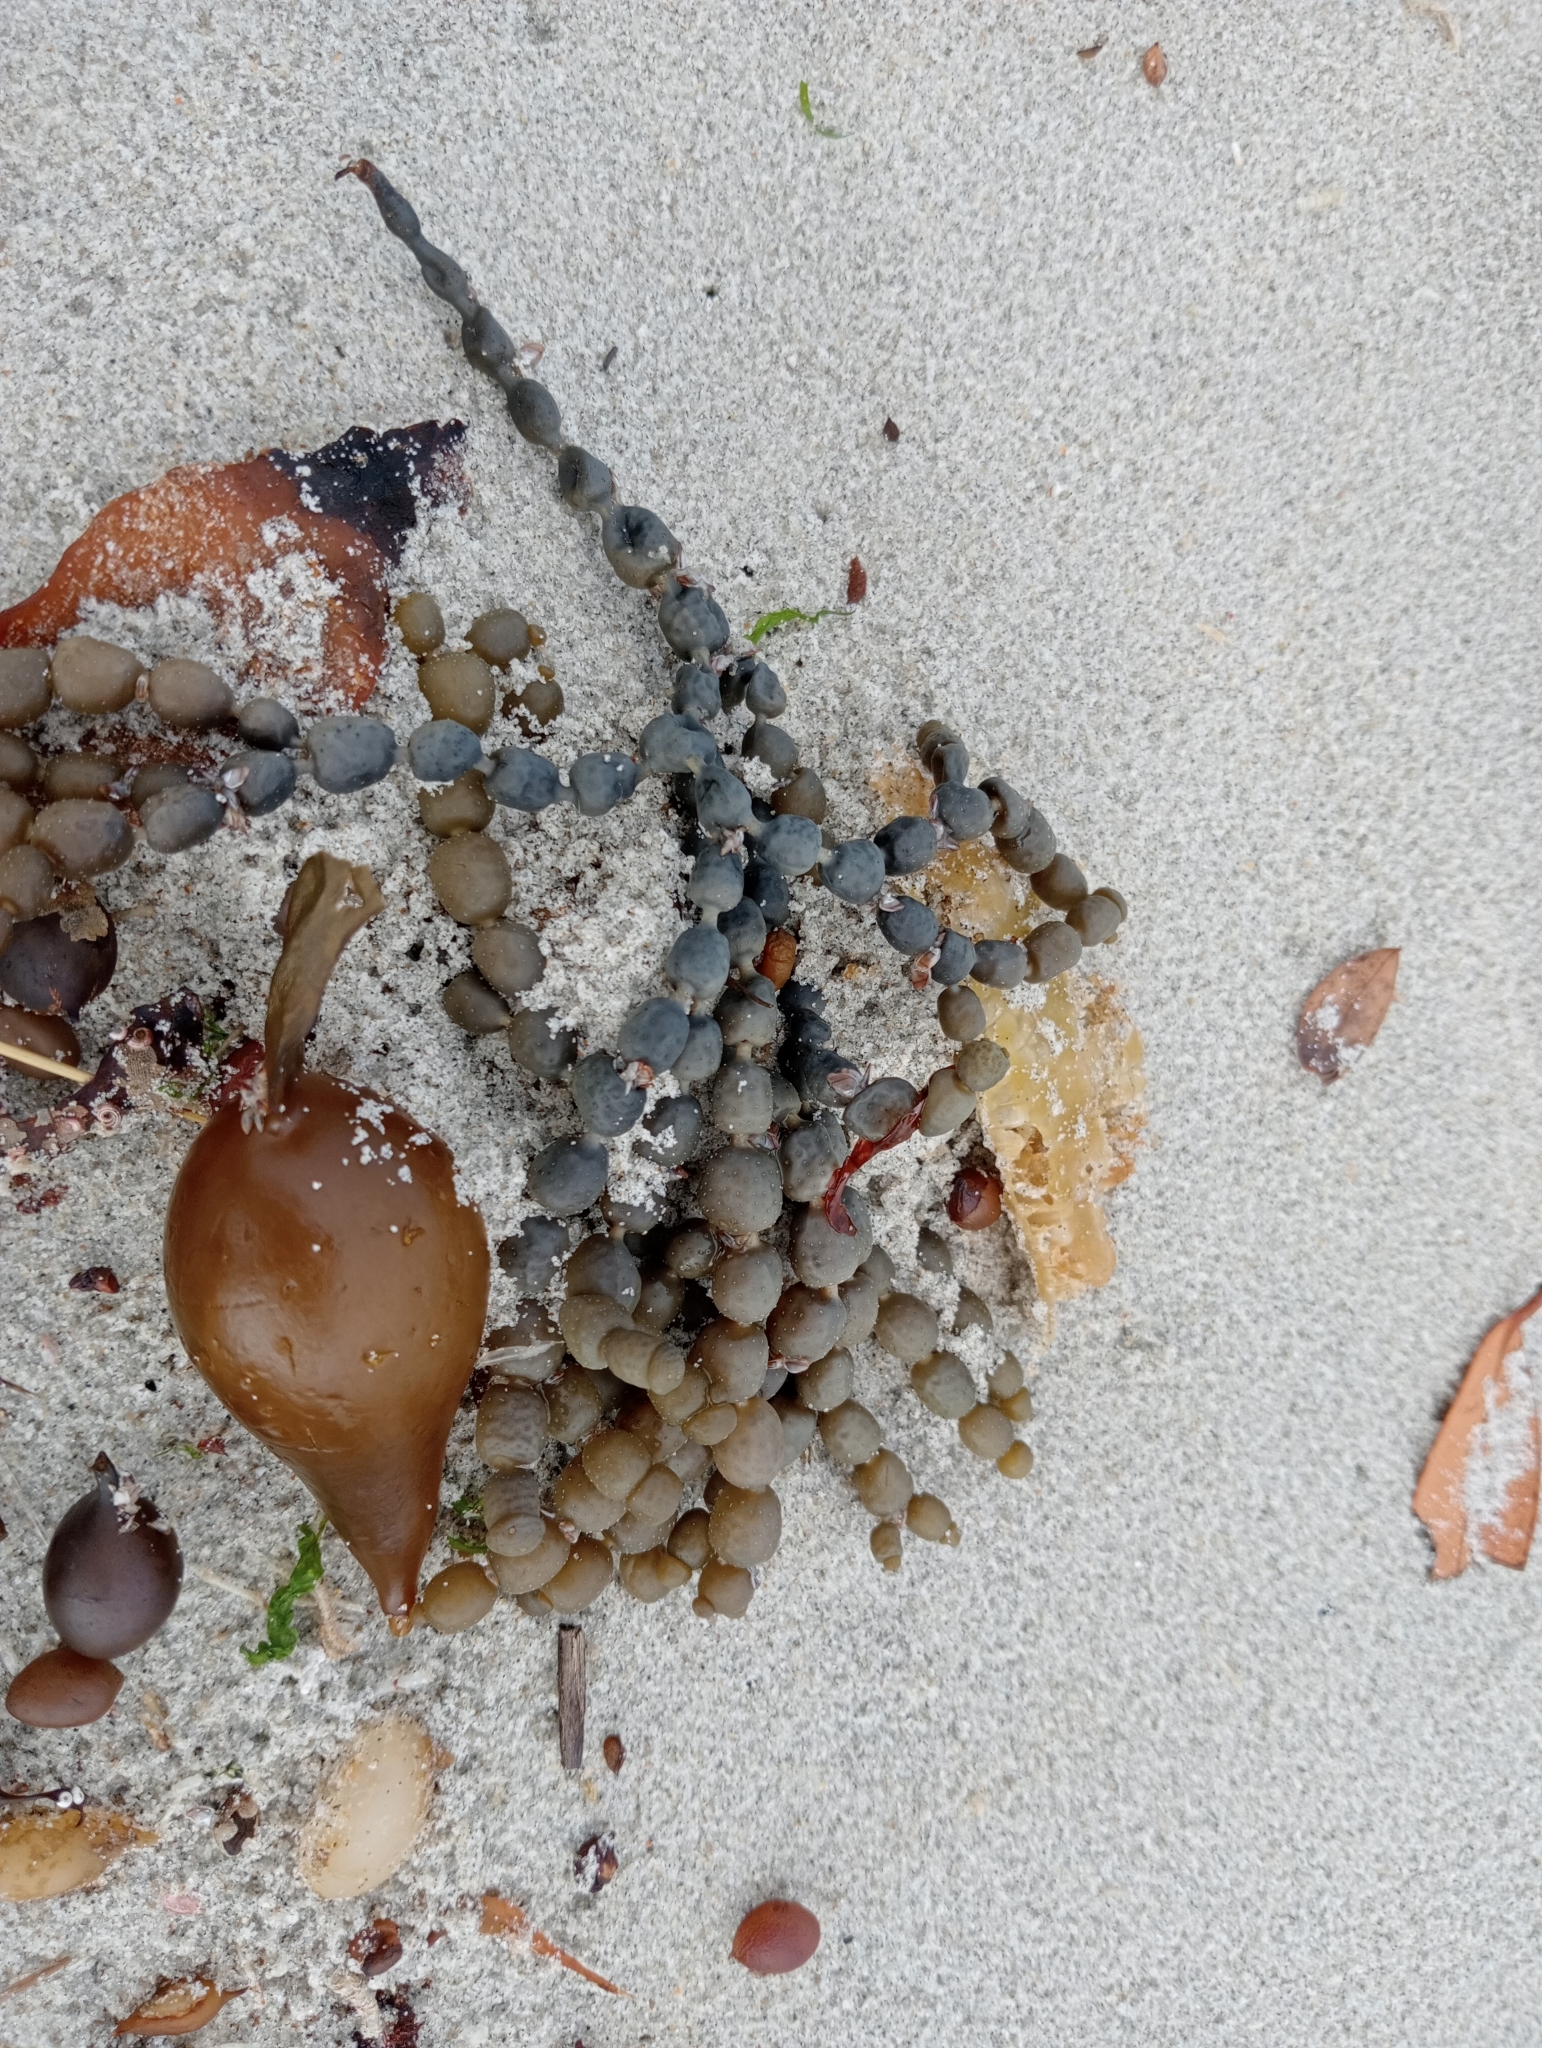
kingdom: Chromista
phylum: Ochrophyta
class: Phaeophyceae
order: Fucales
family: Hormosiraceae
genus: Hormosira
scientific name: Hormosira banksii
